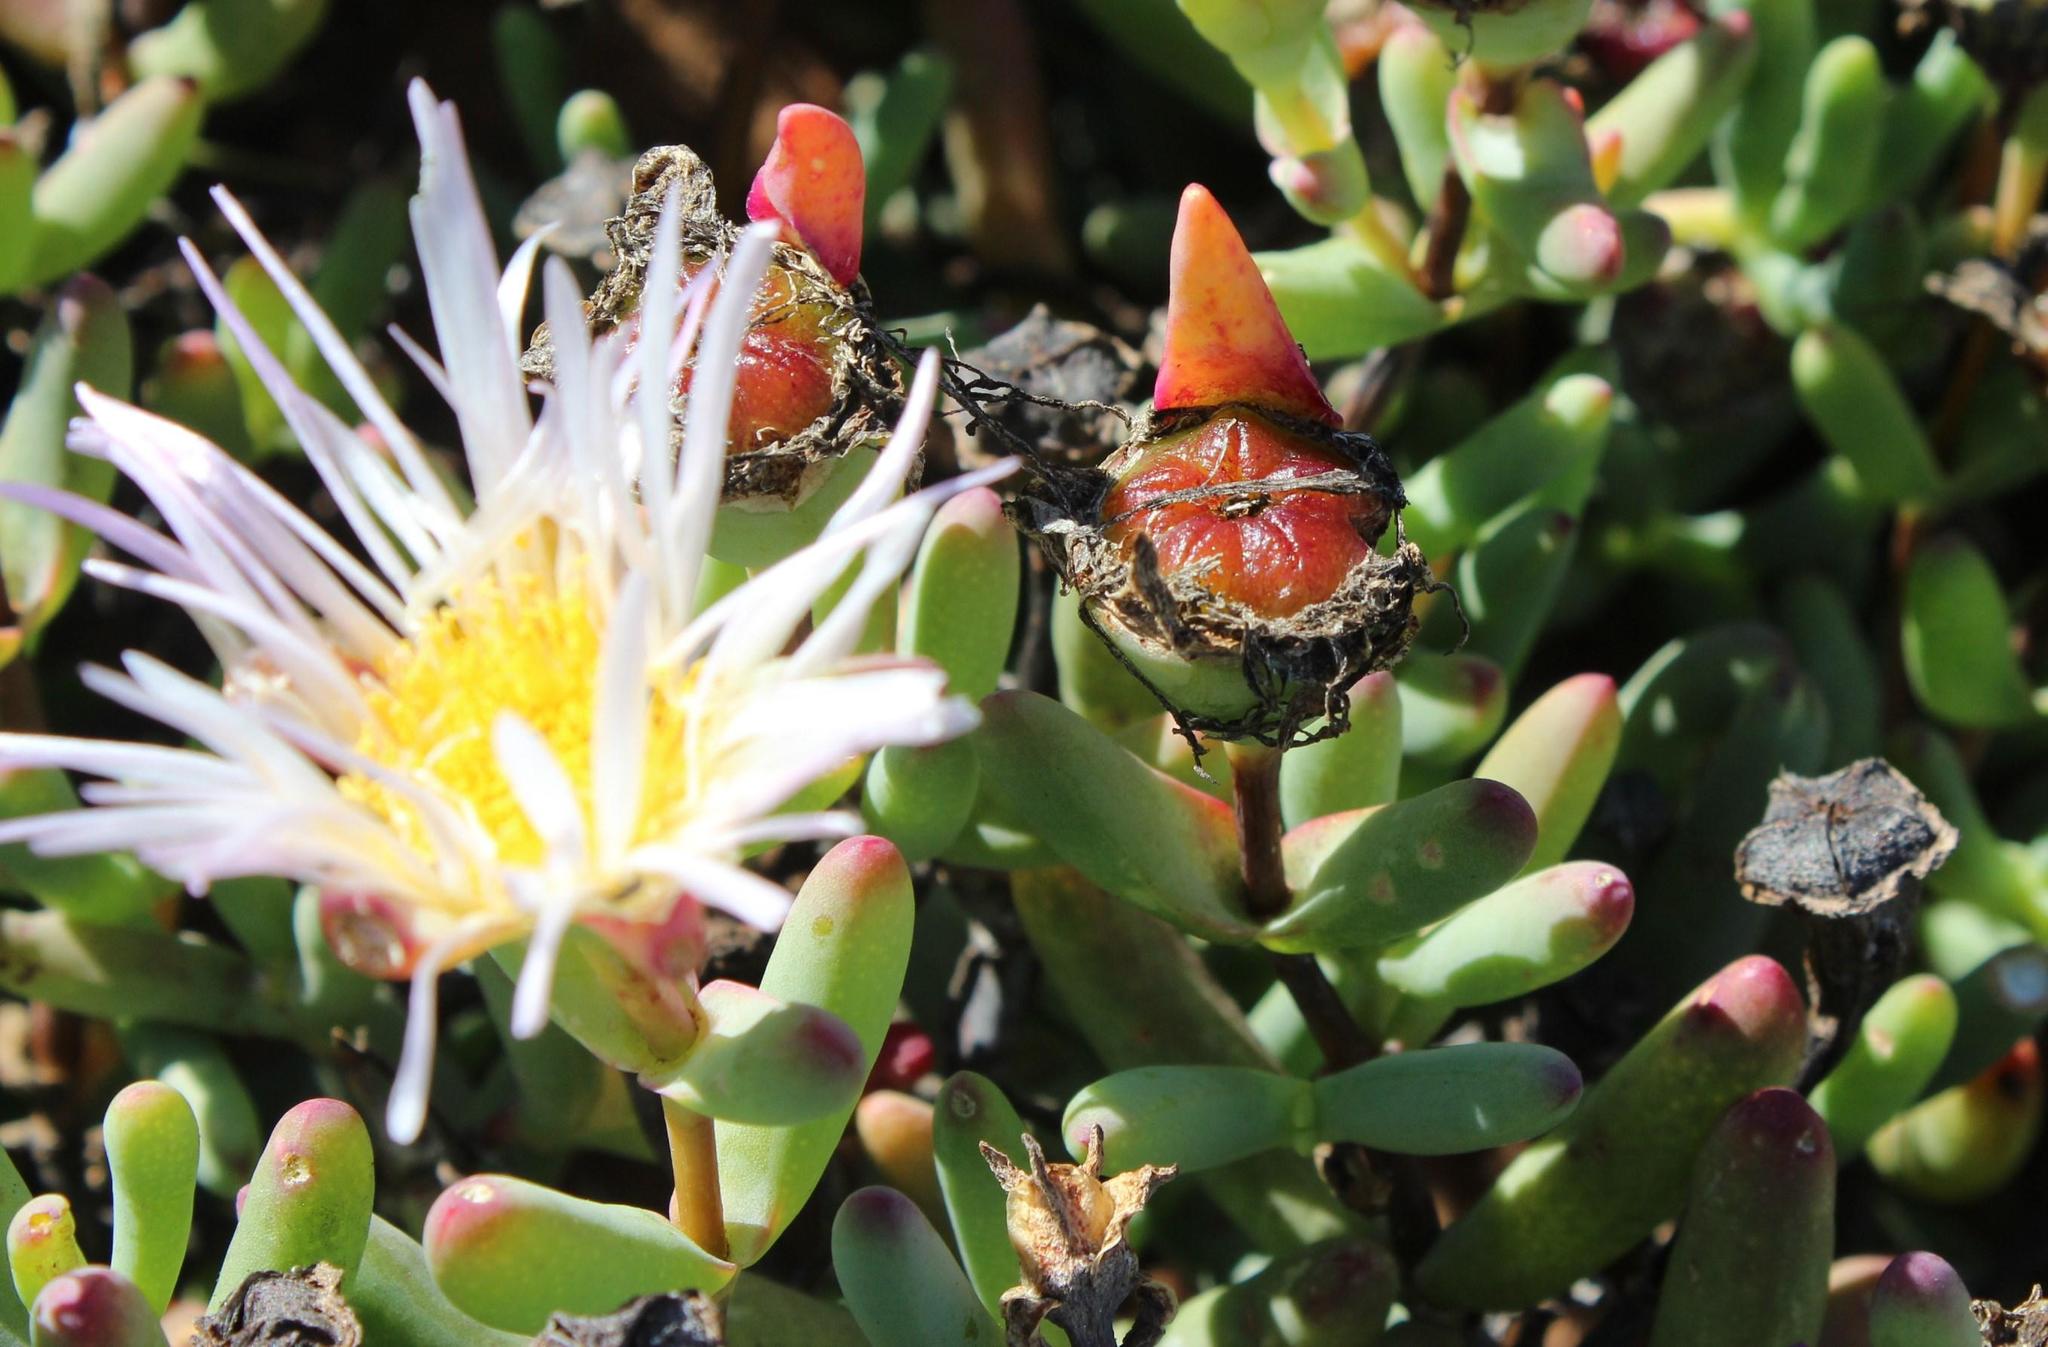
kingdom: Plantae
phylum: Tracheophyta
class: Magnoliopsida
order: Caryophyllales
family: Aizoaceae
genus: Lampranthus
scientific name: Lampranthus watermeyeri
